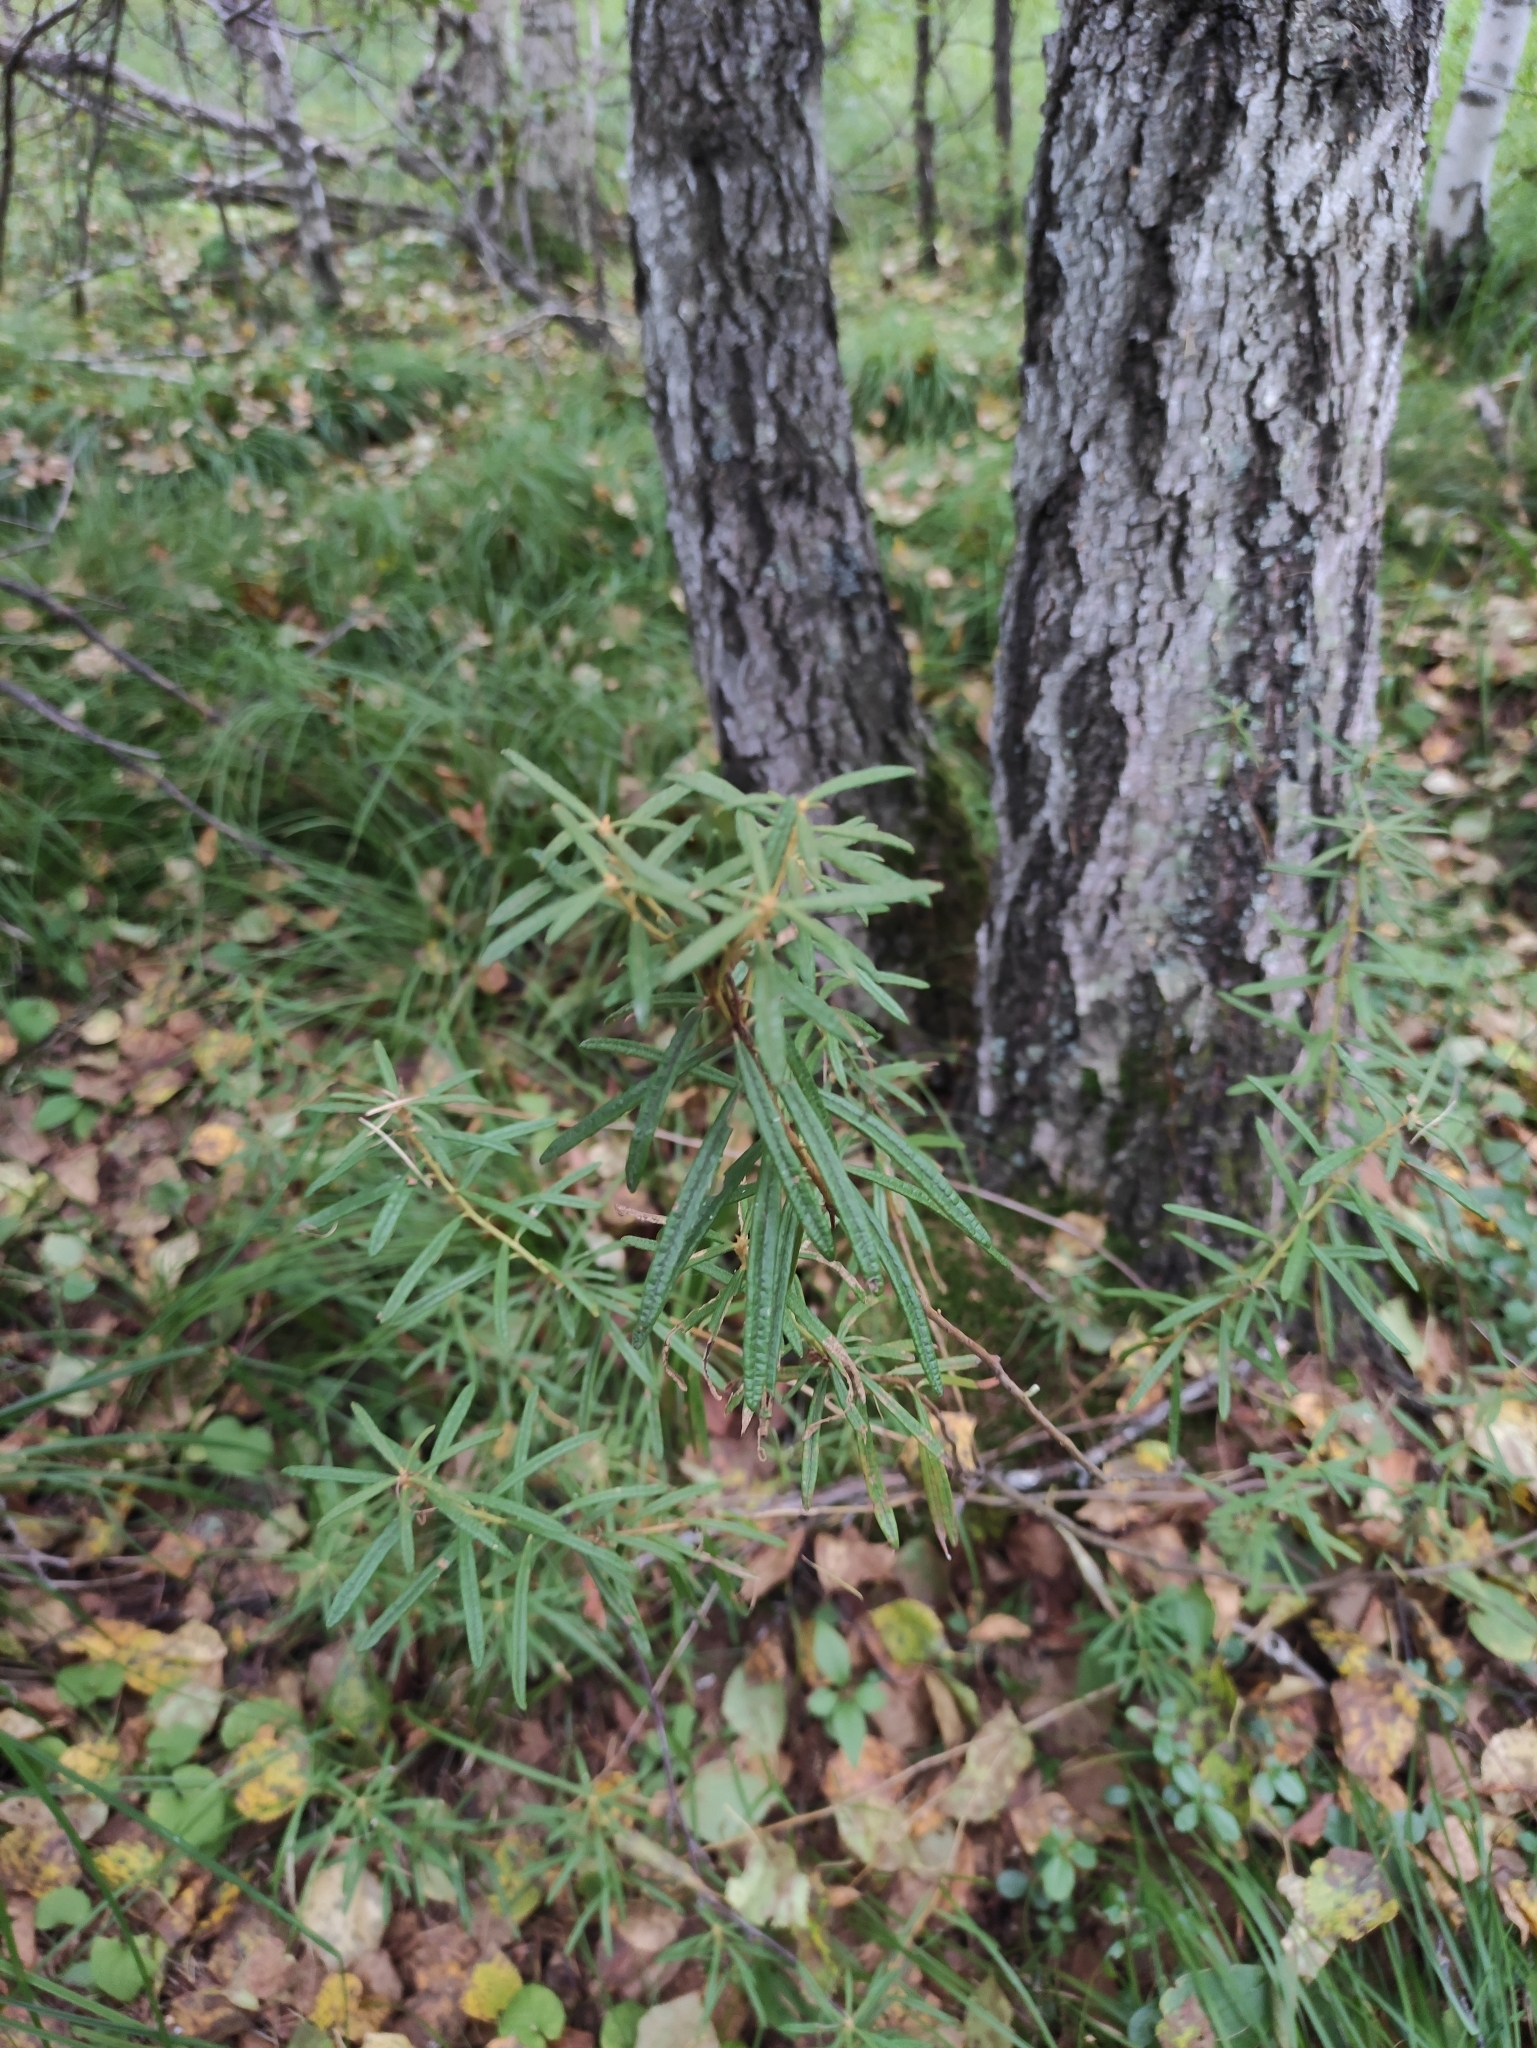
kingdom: Plantae
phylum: Tracheophyta
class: Magnoliopsida
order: Ericales
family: Ericaceae
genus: Rhododendron
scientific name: Rhododendron tomentosum
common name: Marsh labrador tea
